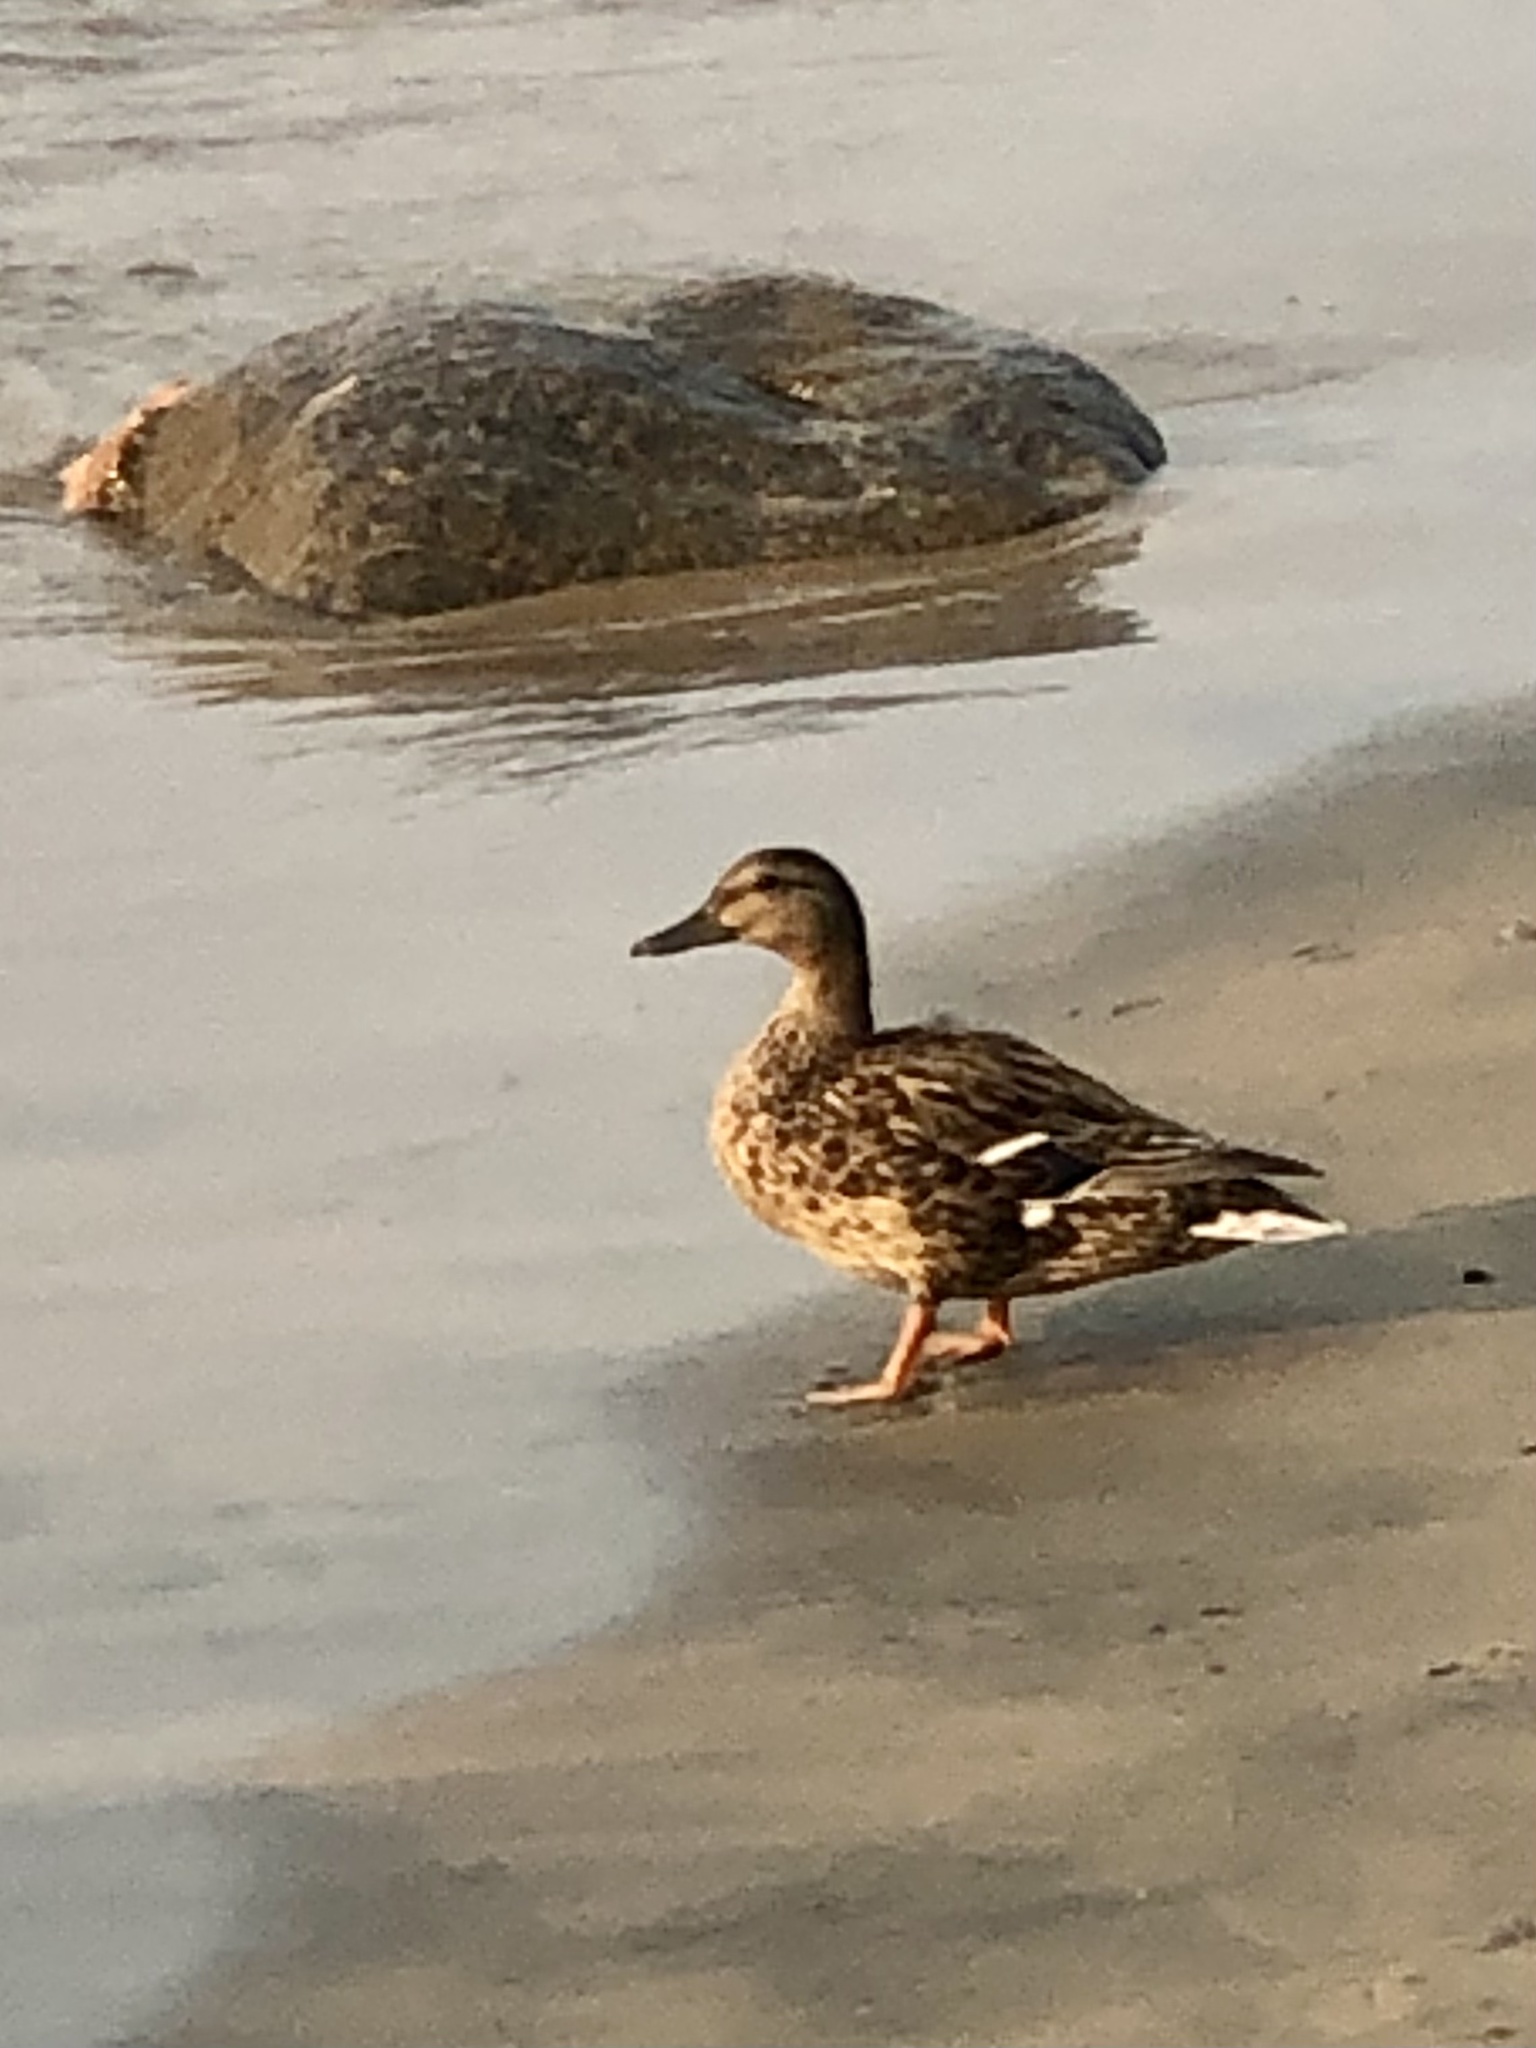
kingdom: Animalia
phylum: Chordata
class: Aves
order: Anseriformes
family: Anatidae
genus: Anas
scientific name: Anas platyrhynchos
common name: Mallard
